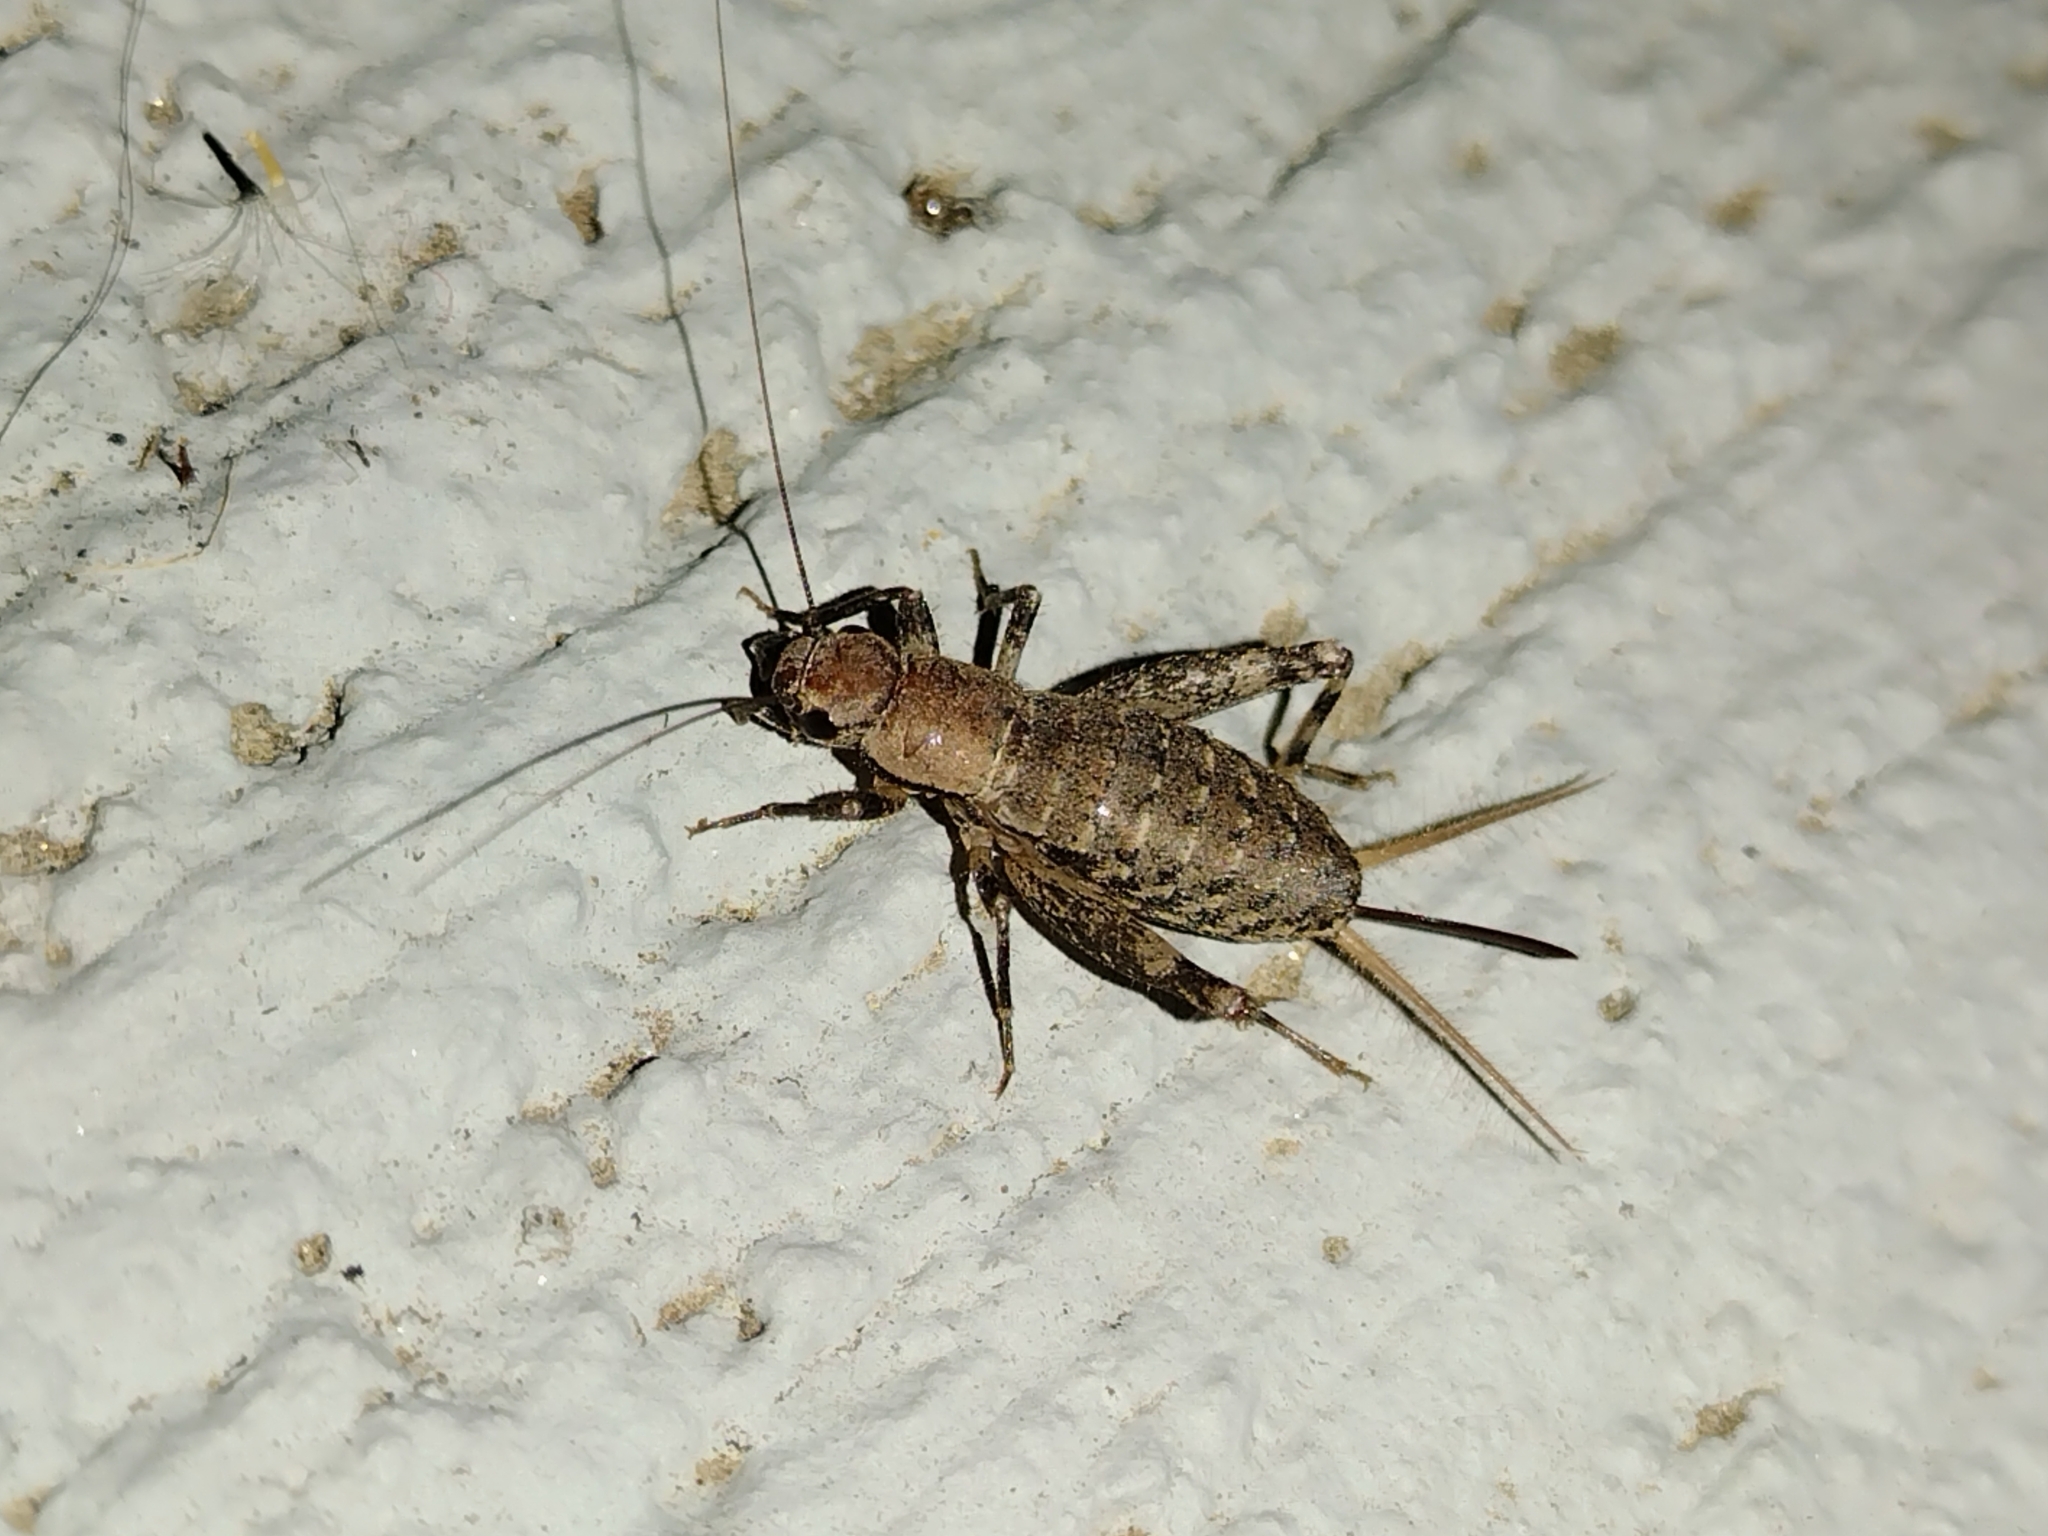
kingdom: Animalia
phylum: Arthropoda
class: Insecta
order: Orthoptera
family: Mogoplistidae
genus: Hoplosphyrum
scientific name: Hoplosphyrum boreale
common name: Long-winged scaly cricket
